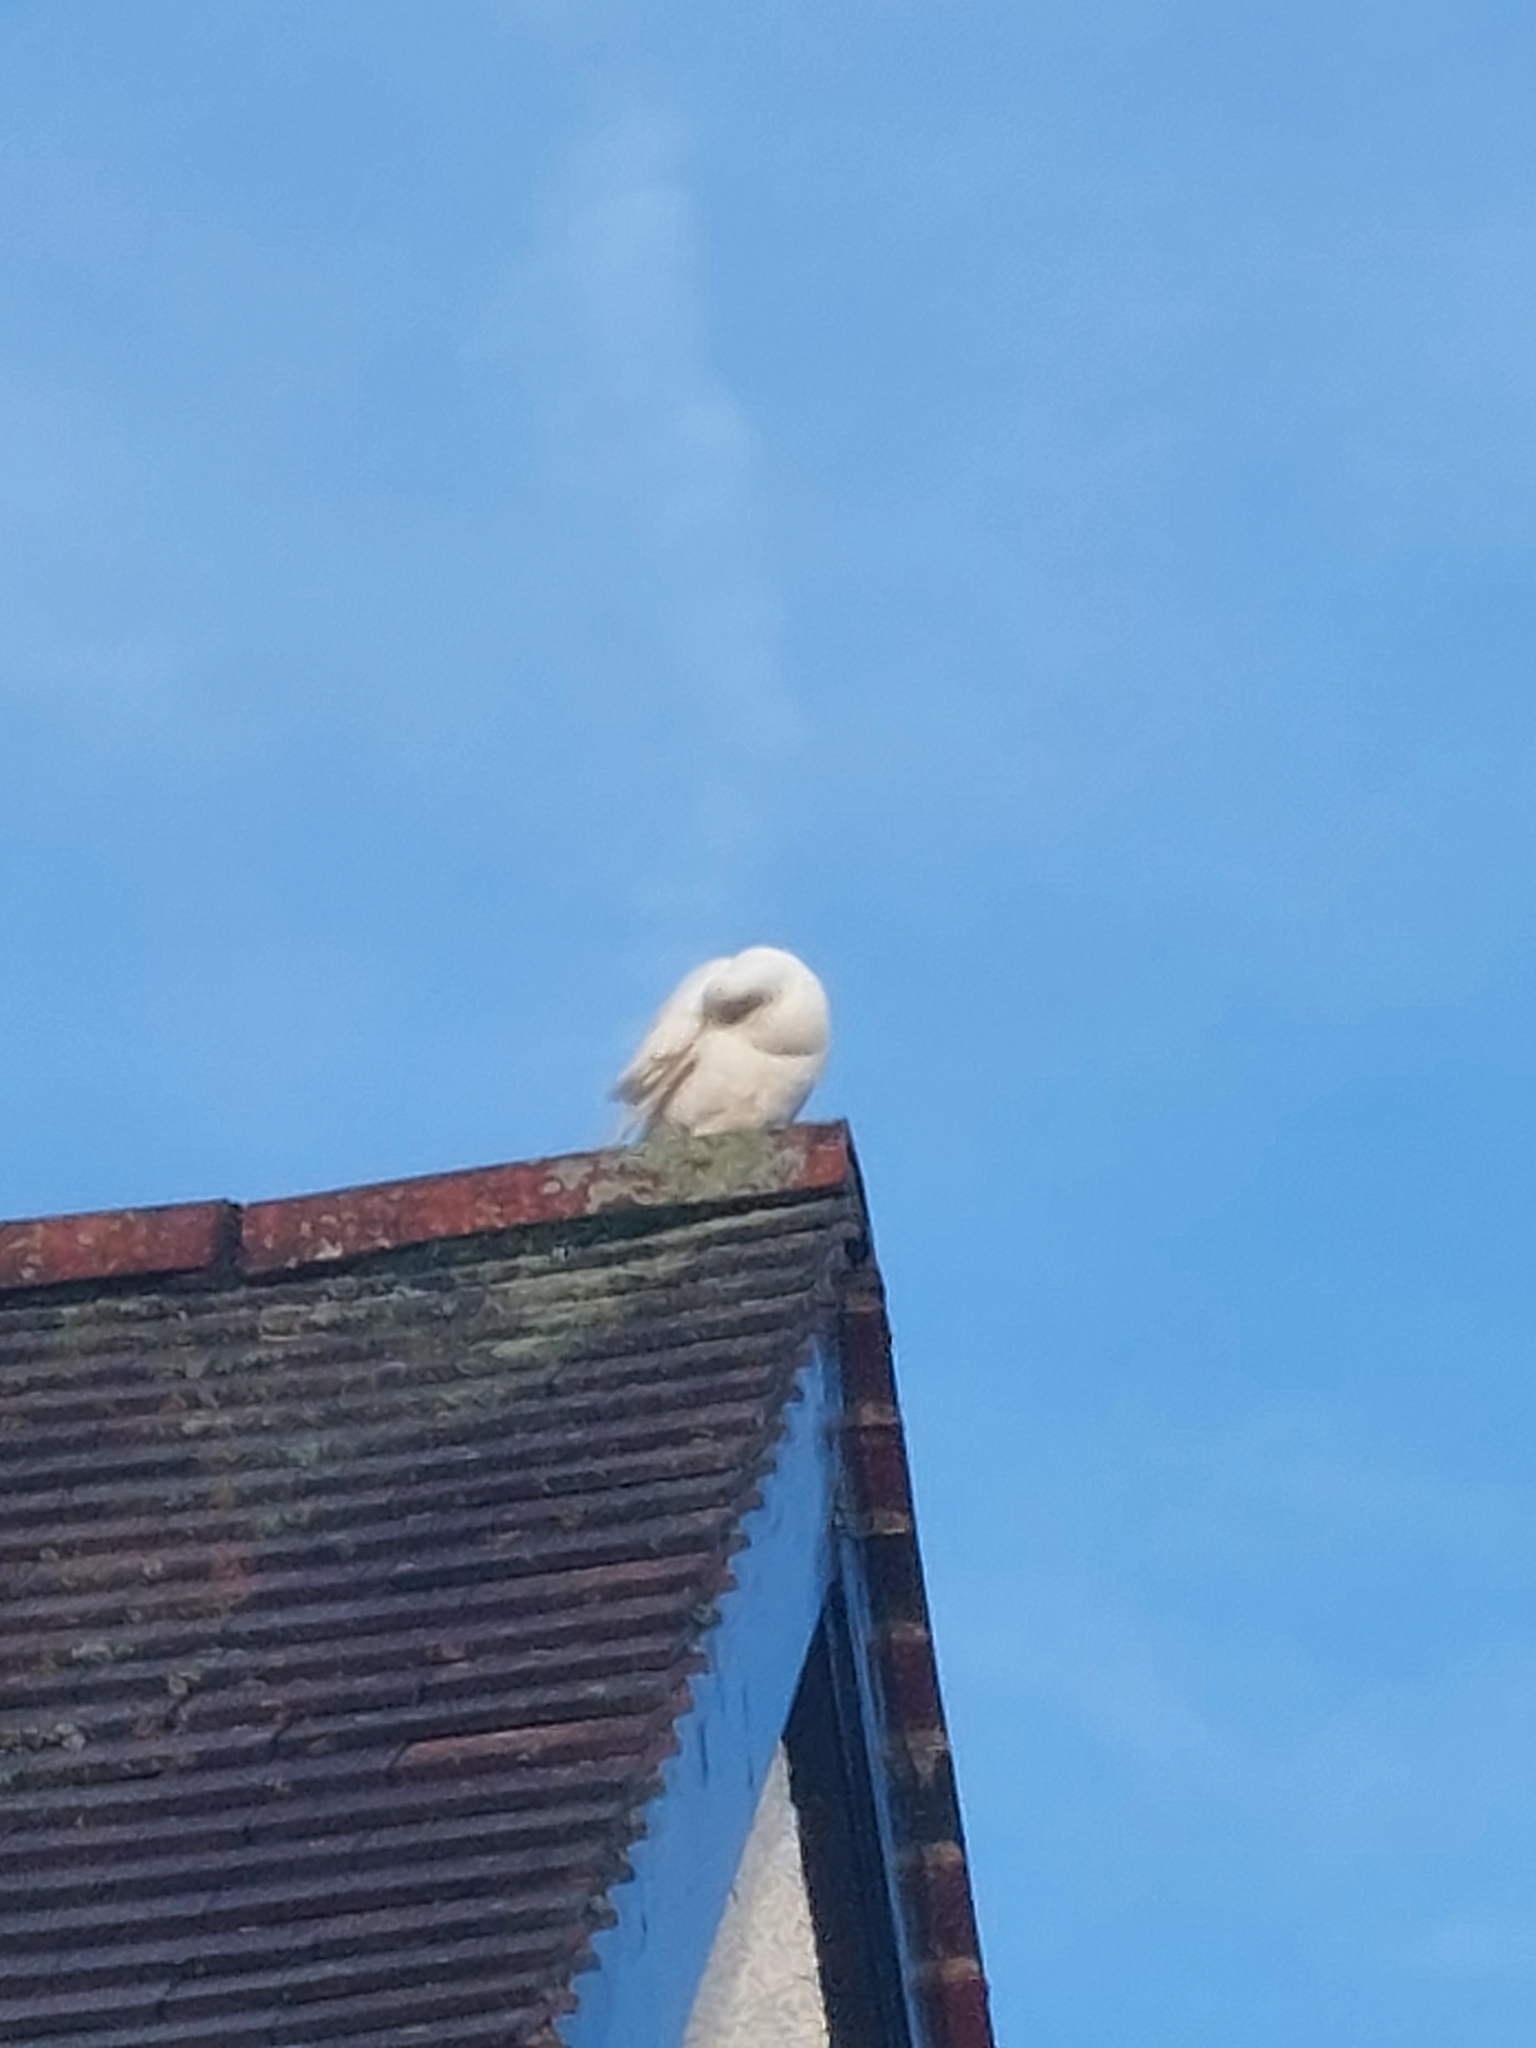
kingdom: Animalia
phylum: Chordata
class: Aves
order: Columbiformes
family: Columbidae
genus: Columba
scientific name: Columba livia
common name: Rock pigeon
